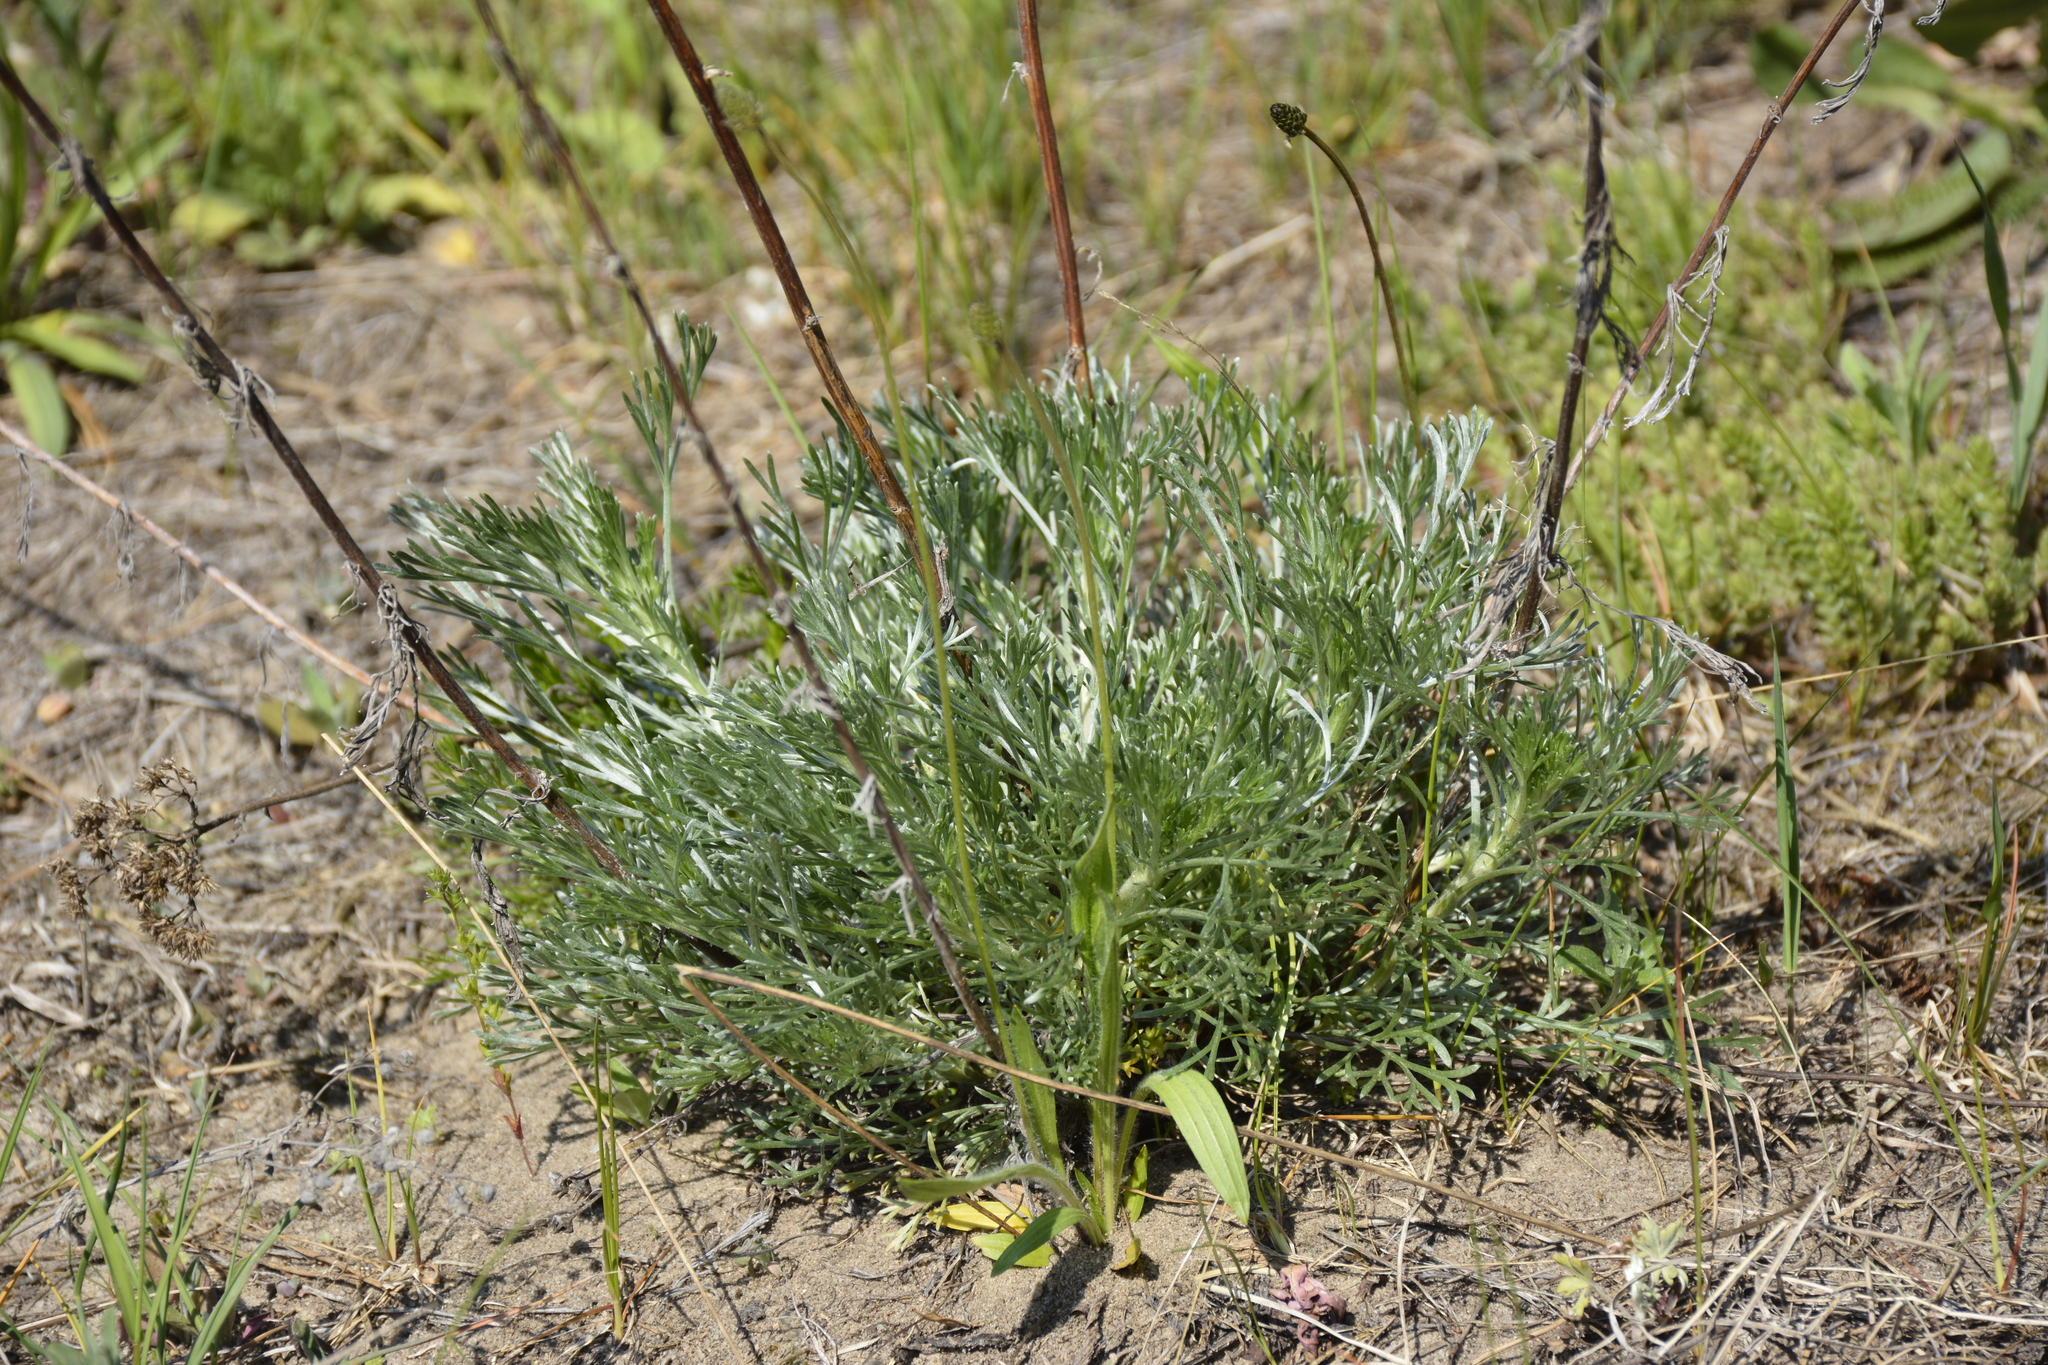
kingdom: Plantae
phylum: Tracheophyta
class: Magnoliopsida
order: Asterales
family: Asteraceae
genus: Artemisia
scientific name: Artemisia campestris
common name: Field wormwood
